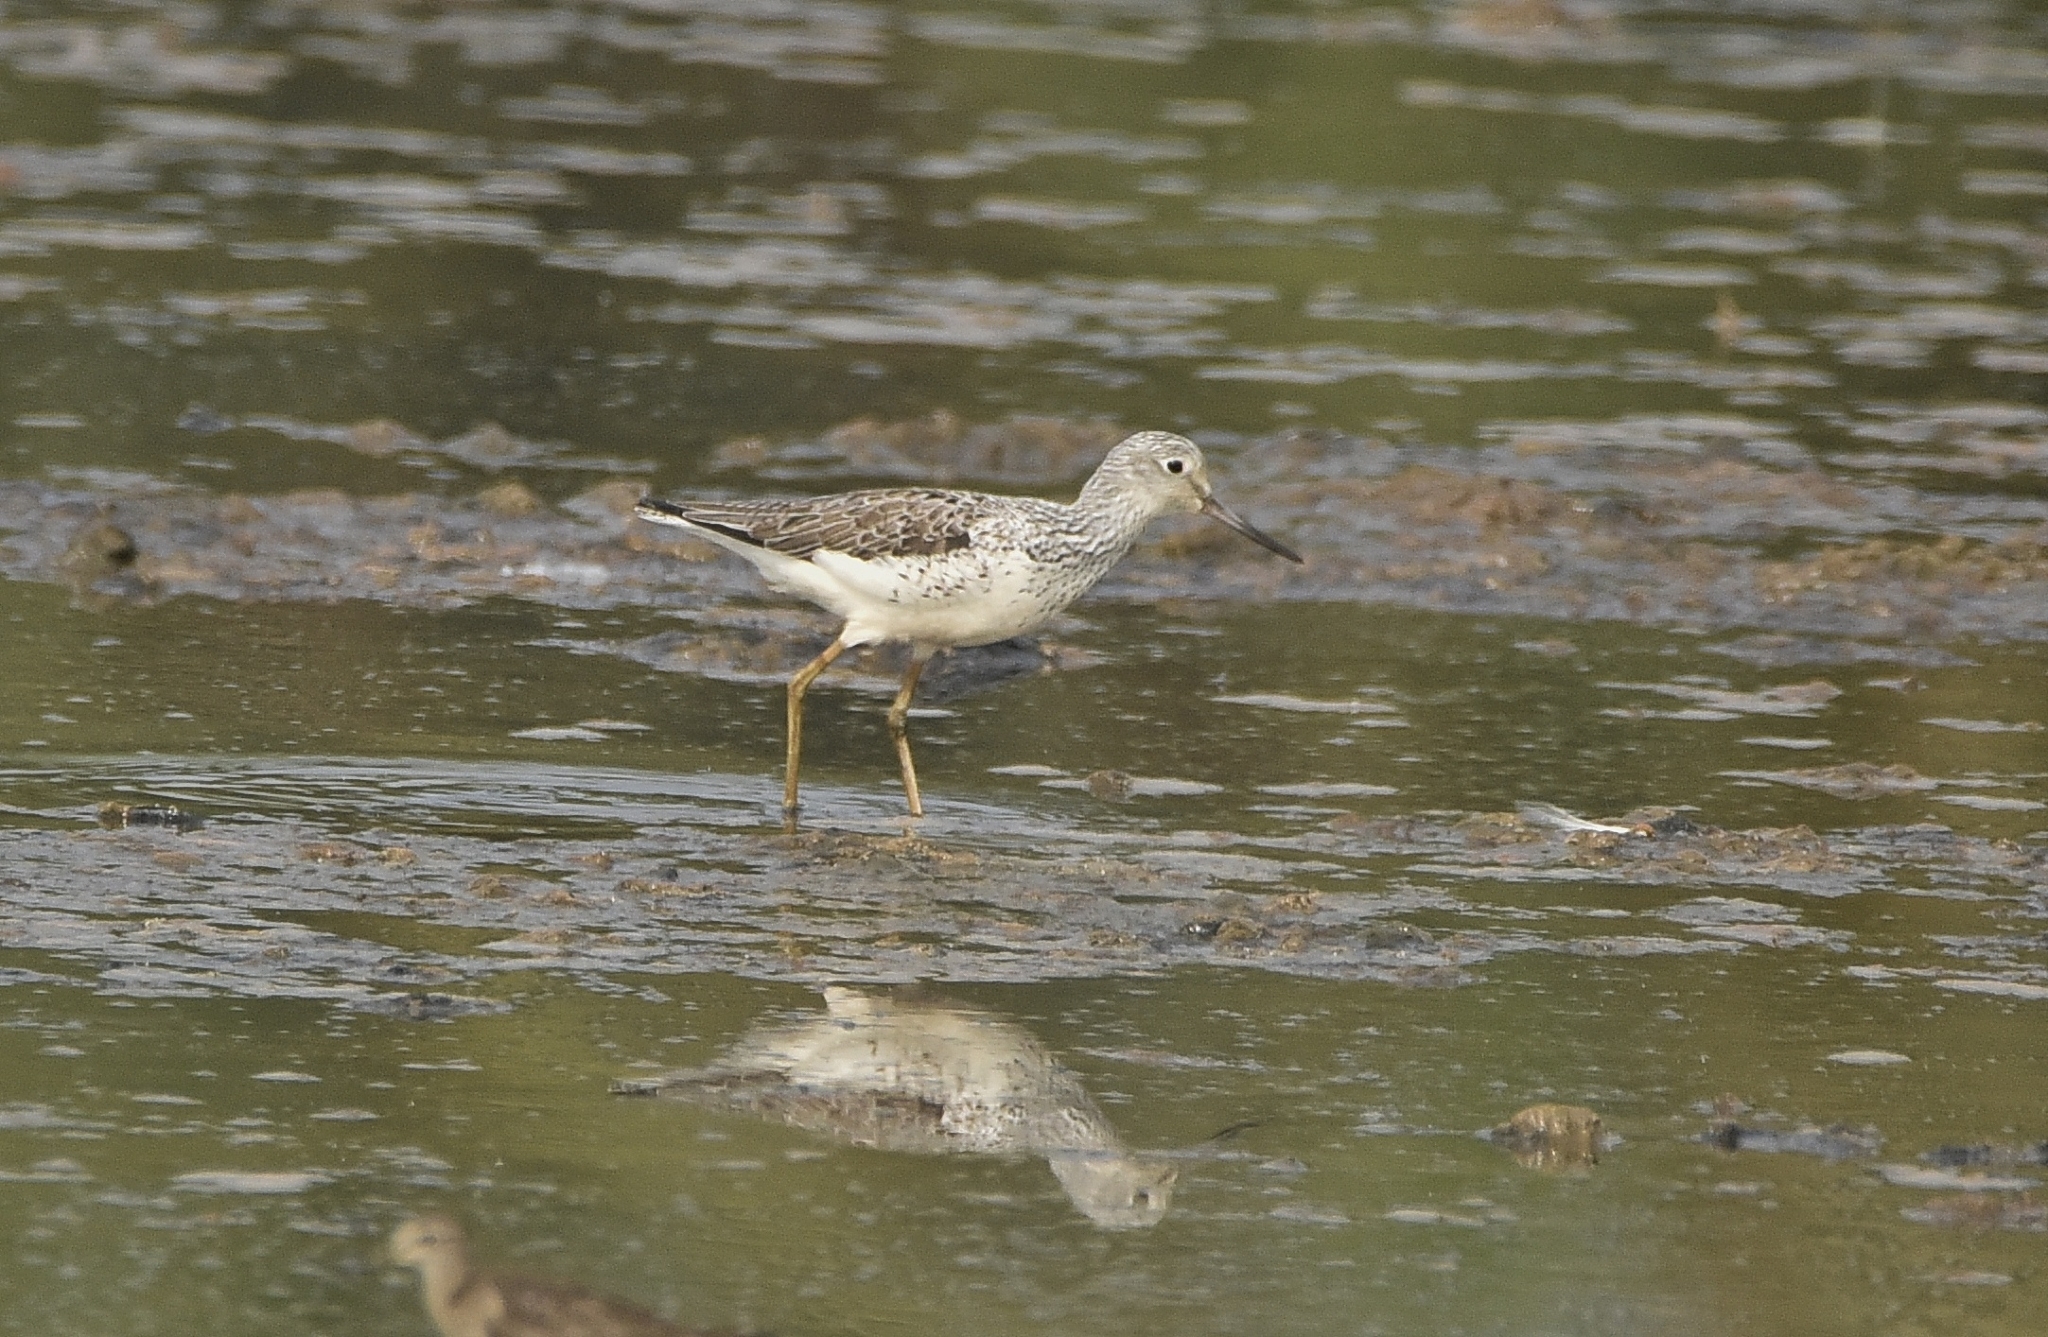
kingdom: Animalia
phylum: Chordata
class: Aves
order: Charadriiformes
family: Scolopacidae
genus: Tringa
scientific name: Tringa nebularia
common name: Common greenshank
